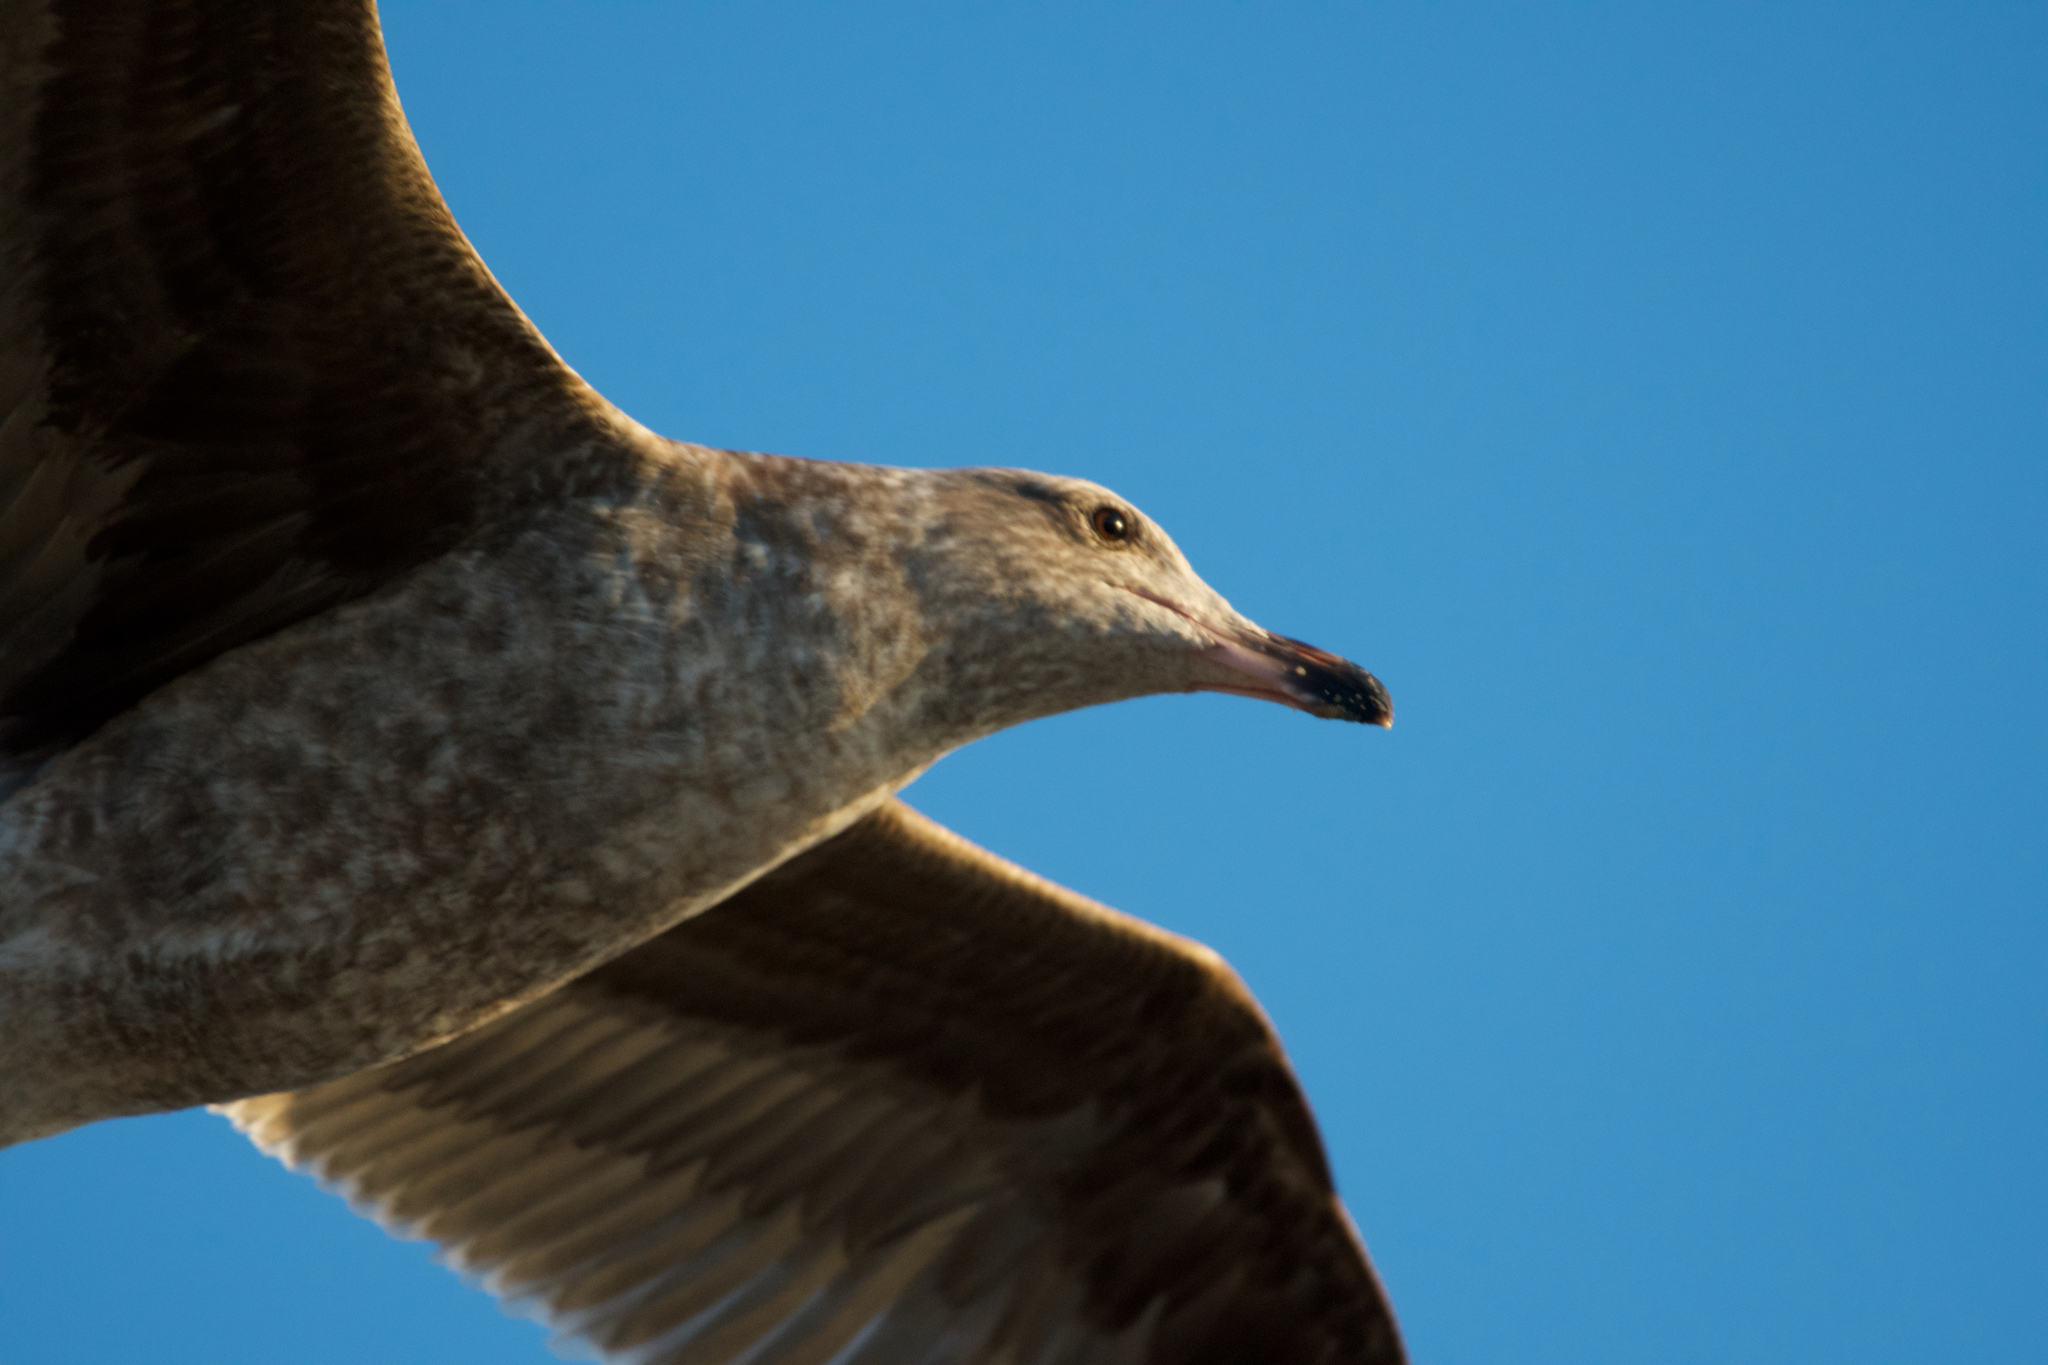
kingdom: Animalia
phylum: Chordata
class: Aves
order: Charadriiformes
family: Laridae
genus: Larus
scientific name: Larus occidentalis
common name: Western gull
